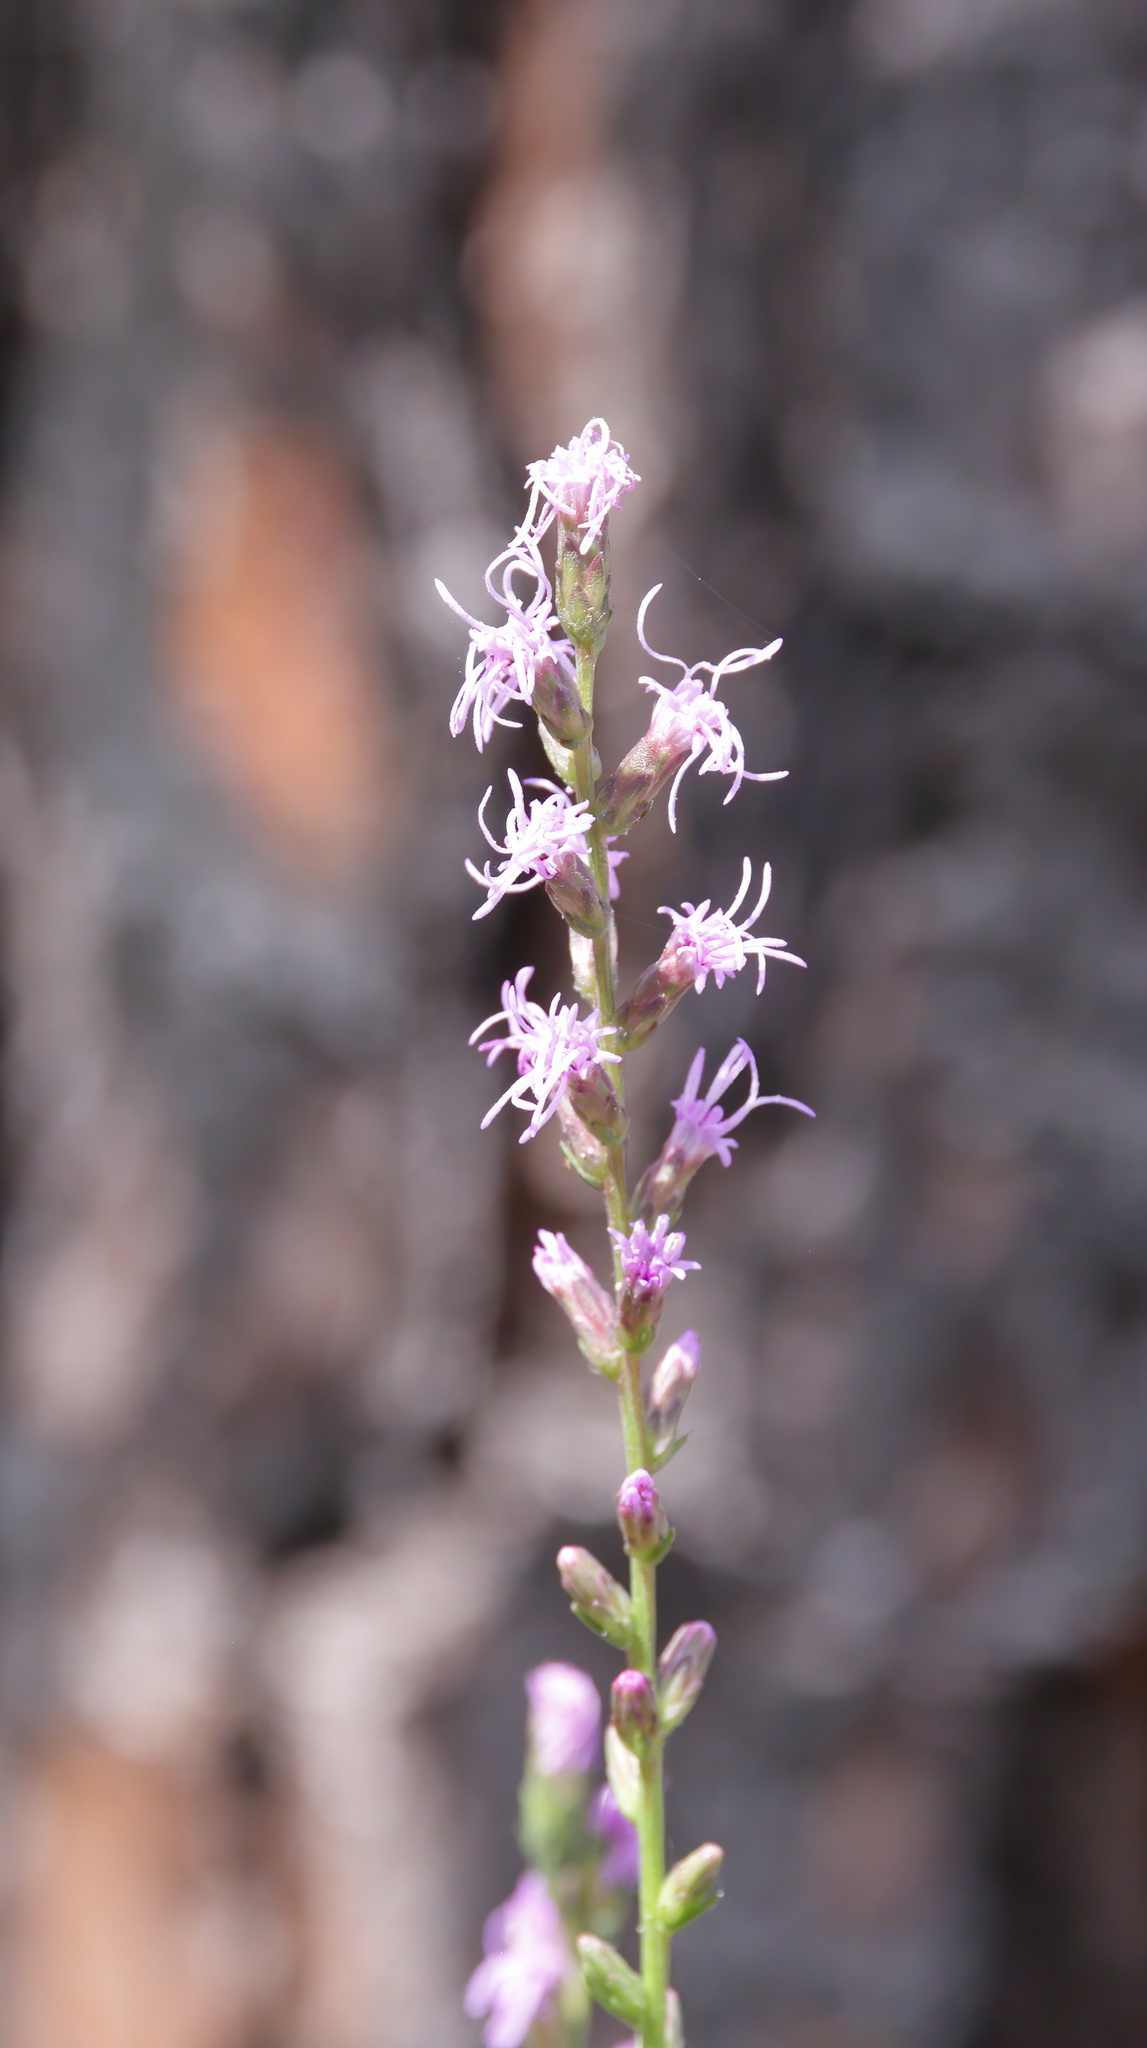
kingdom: Plantae
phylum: Tracheophyta
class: Magnoliopsida
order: Asterales
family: Asteraceae
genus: Liatris
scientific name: Liatris spicata
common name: Florist gayfeather
